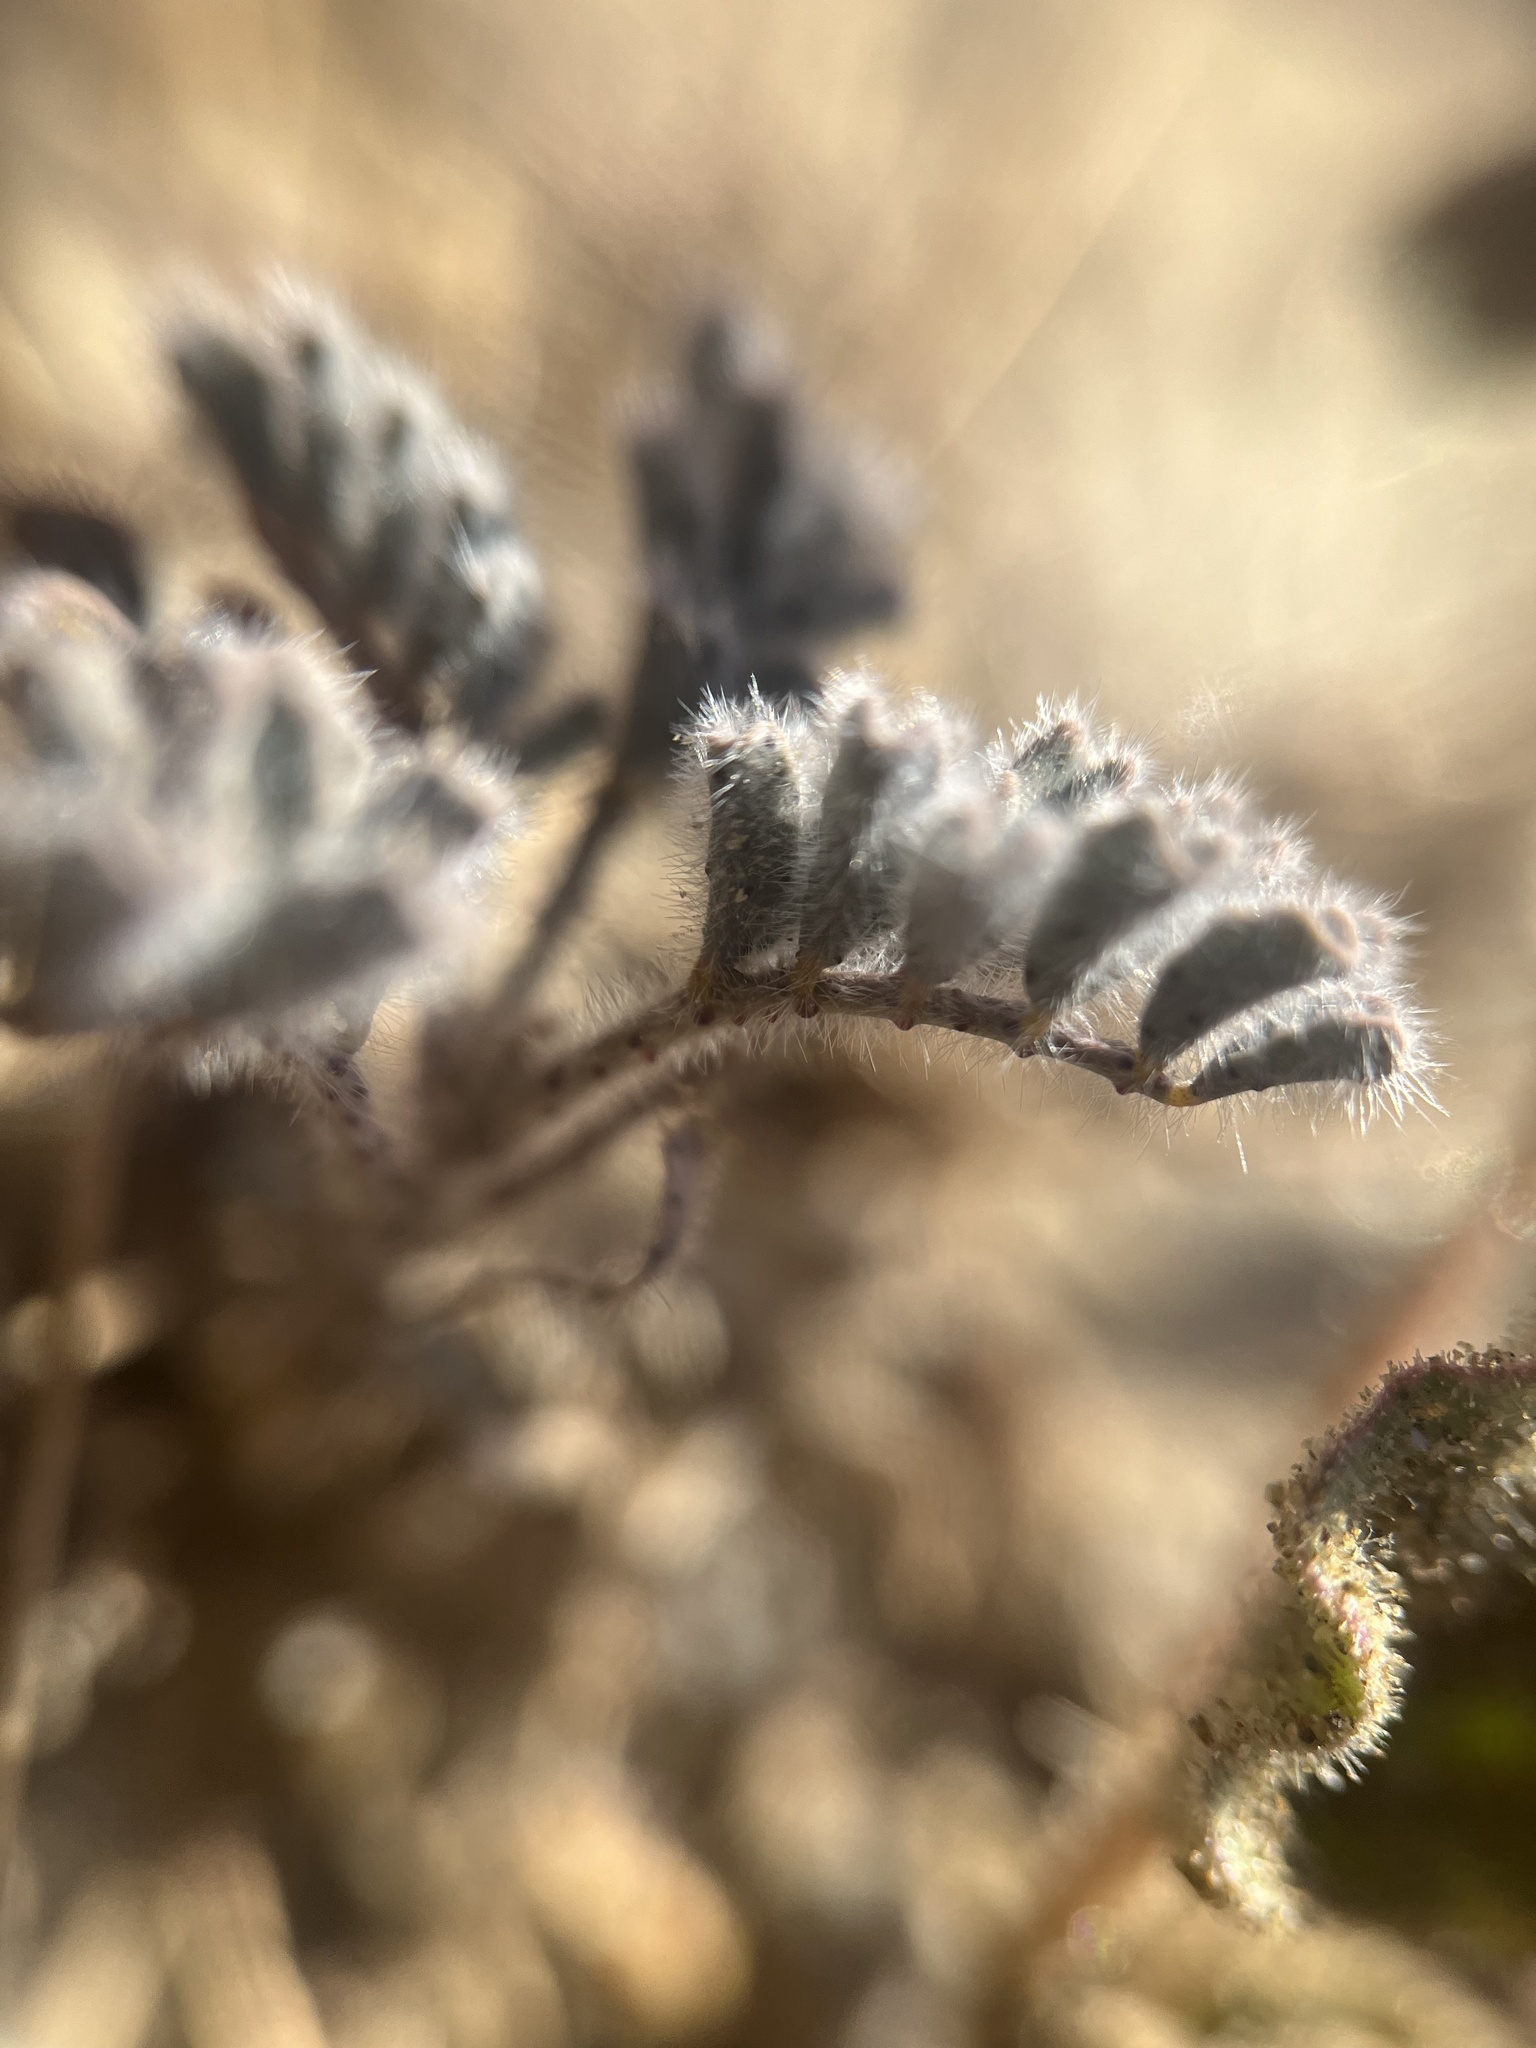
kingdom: Plantae
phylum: Tracheophyta
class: Magnoliopsida
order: Fabales
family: Fabaceae
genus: Dalea
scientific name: Dalea mollissima
